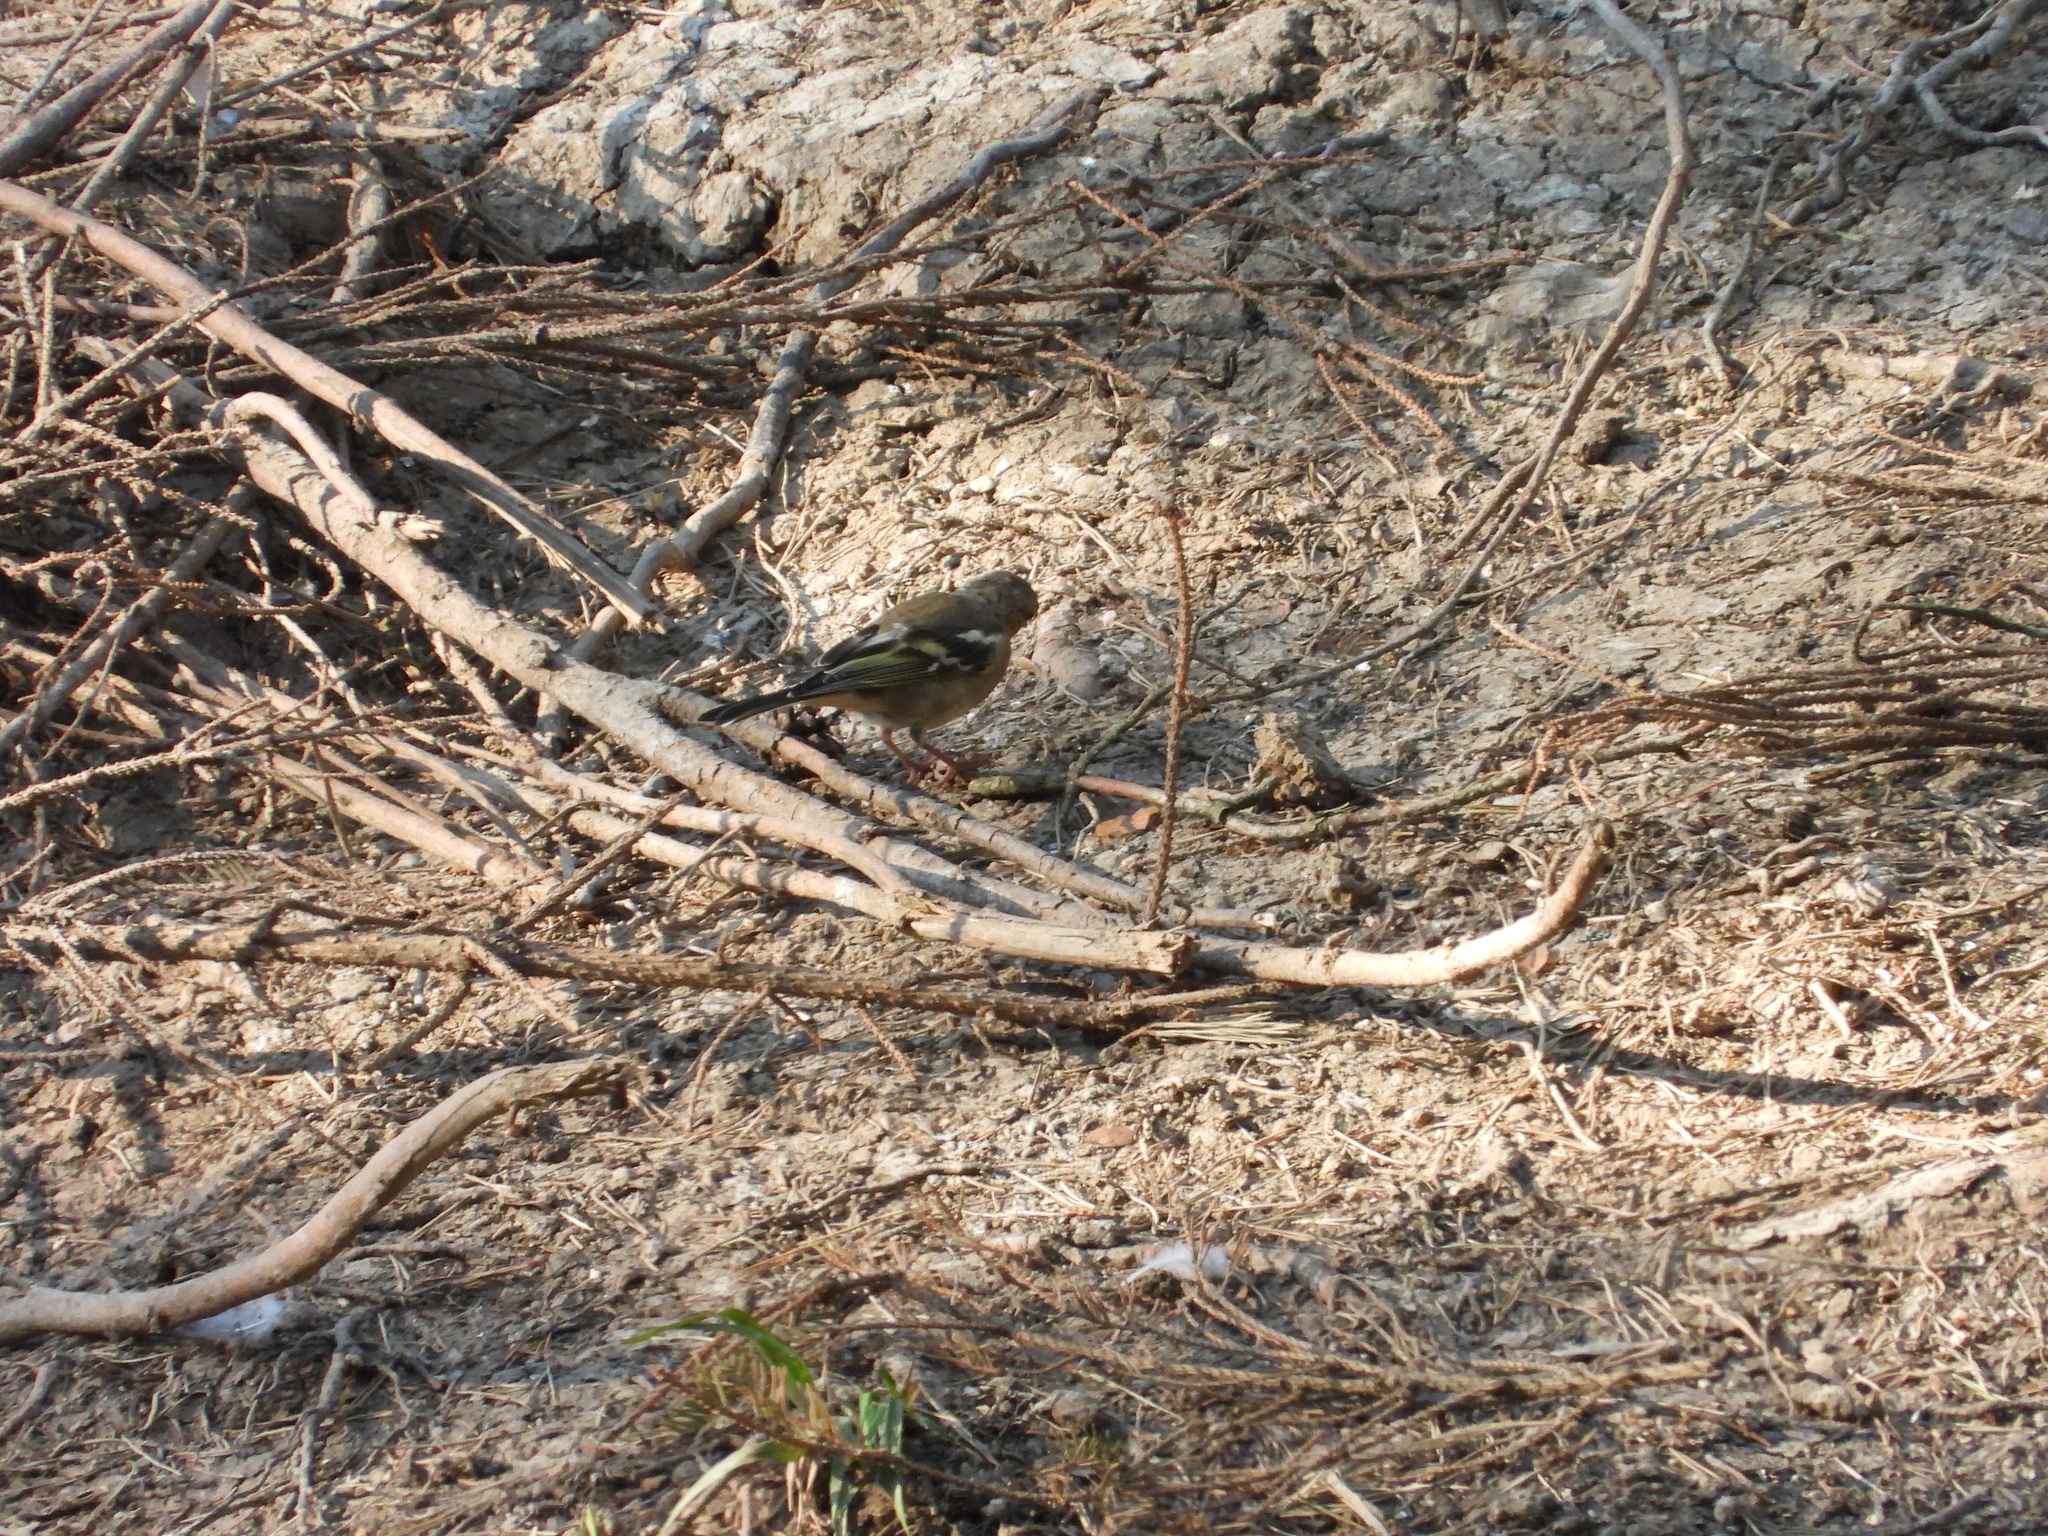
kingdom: Animalia
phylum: Chordata
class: Aves
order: Passeriformes
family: Fringillidae
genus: Fringilla
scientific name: Fringilla coelebs
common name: Common chaffinch
